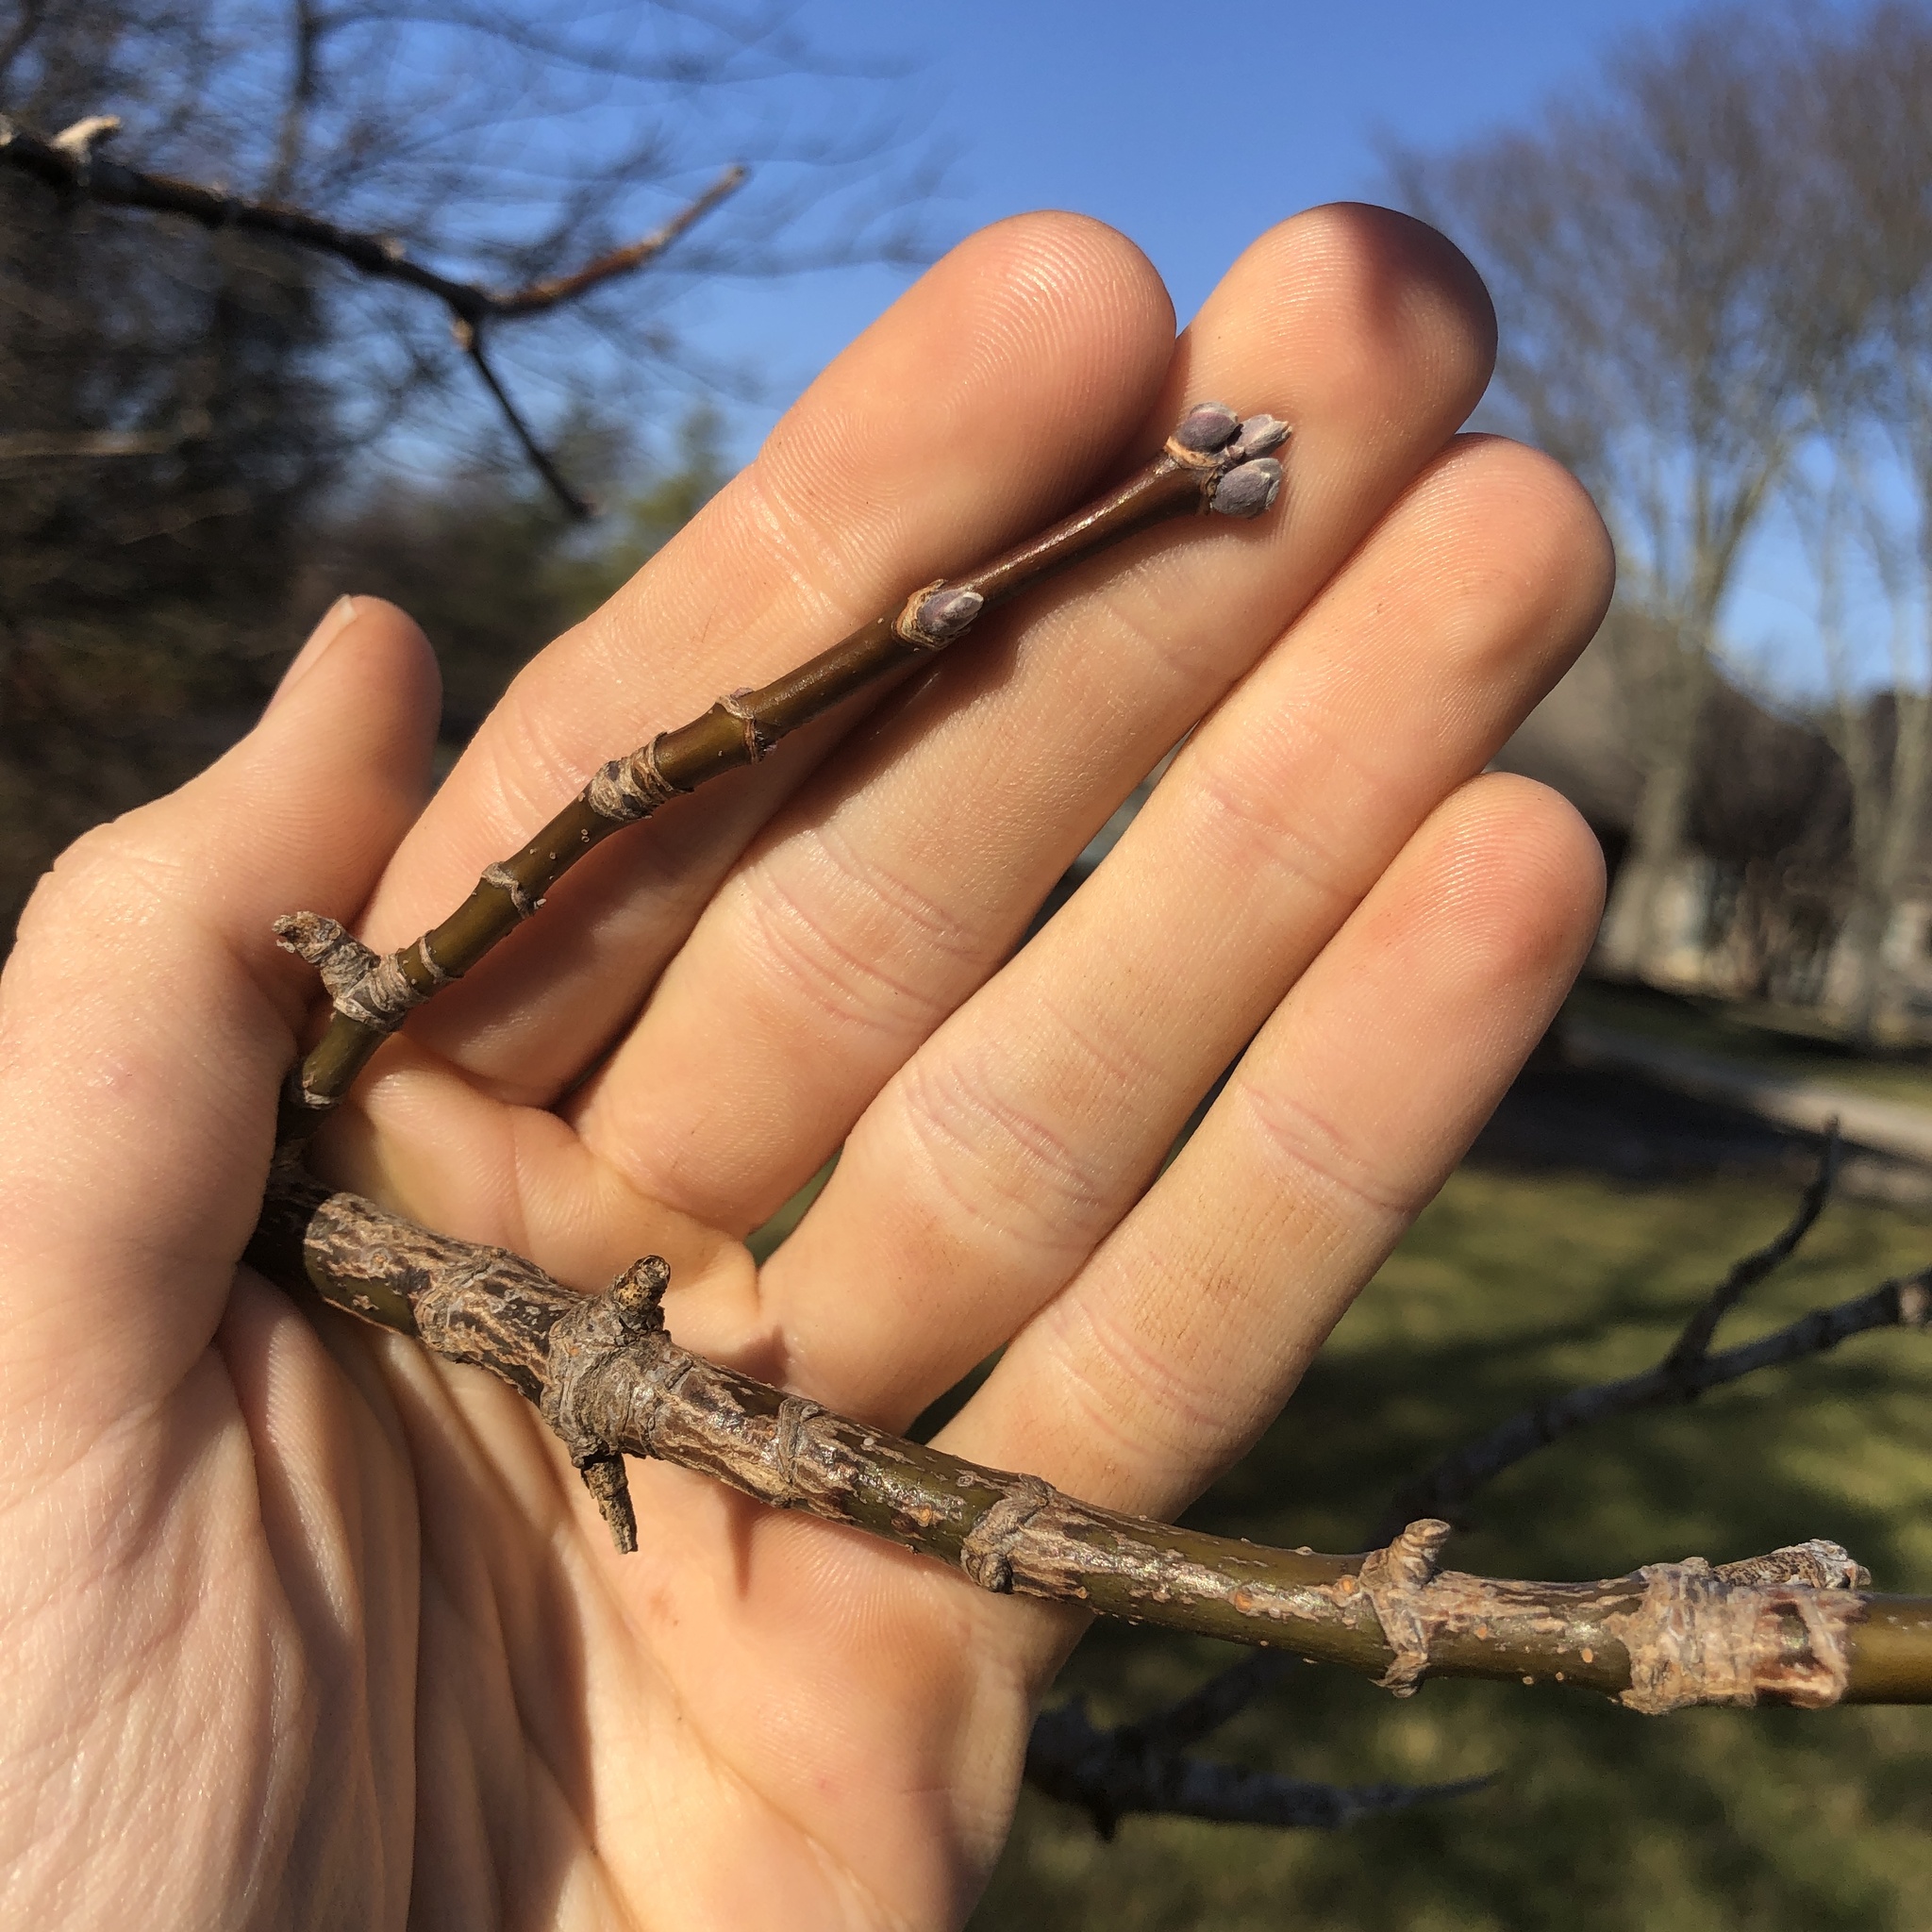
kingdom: Plantae
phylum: Tracheophyta
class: Magnoliopsida
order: Sapindales
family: Sapindaceae
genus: Acer
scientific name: Acer negundo
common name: Ashleaf maple
